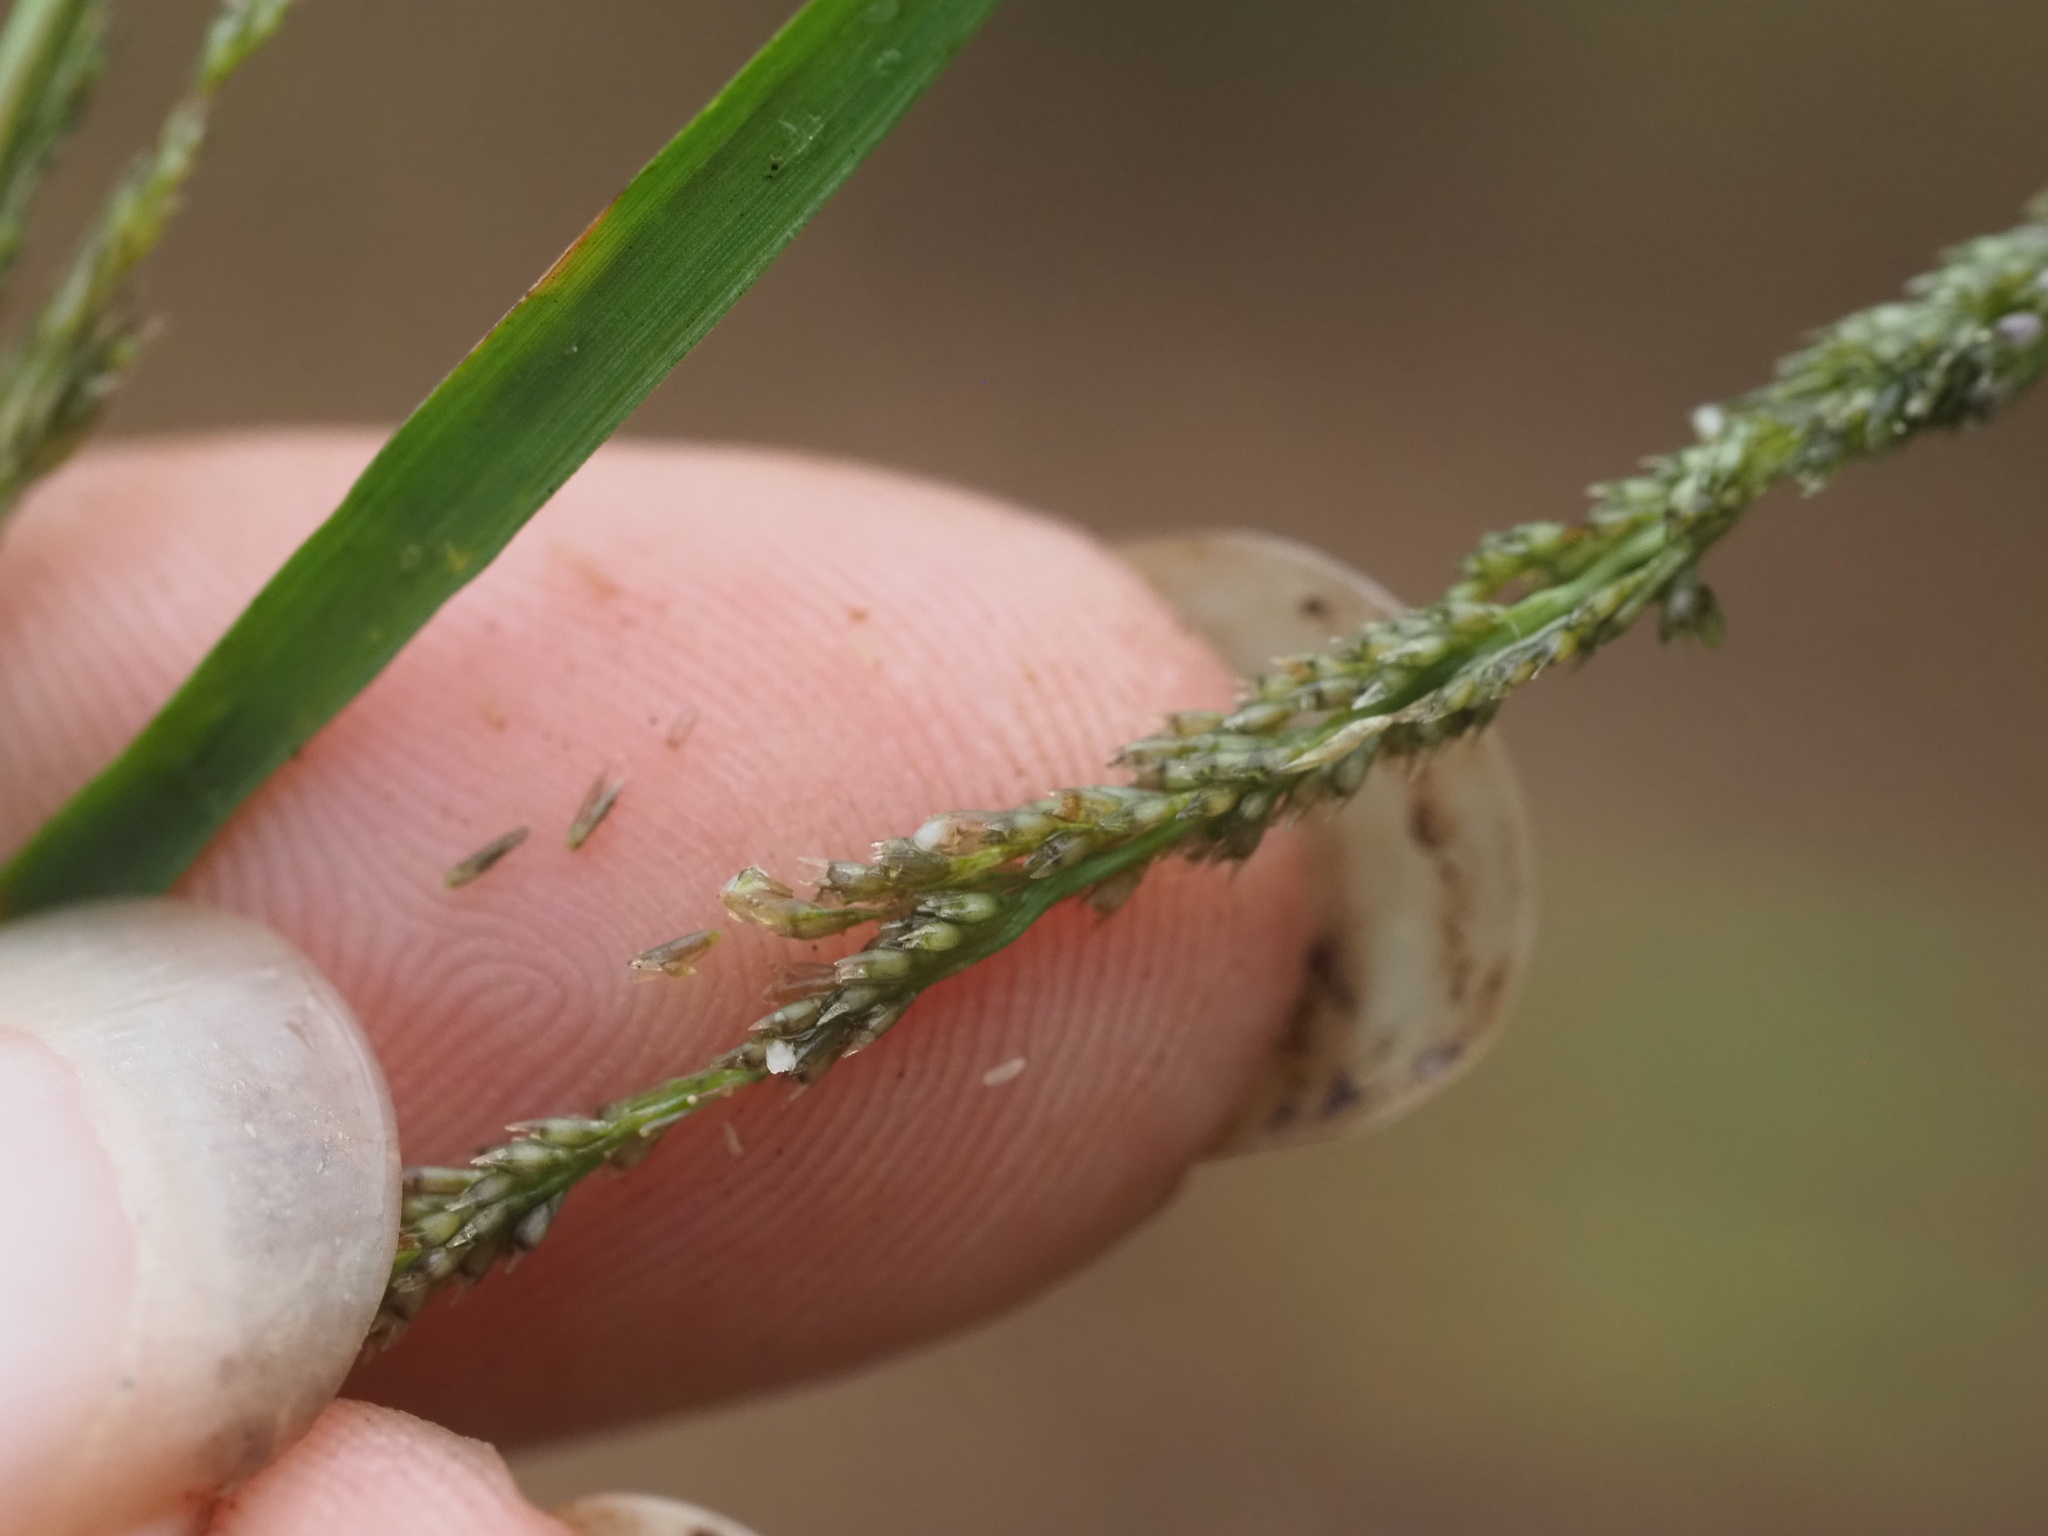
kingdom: Plantae
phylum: Tracheophyta
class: Liliopsida
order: Poales
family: Poaceae
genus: Sporobolus
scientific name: Sporobolus elongatus
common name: Rat tail grass
